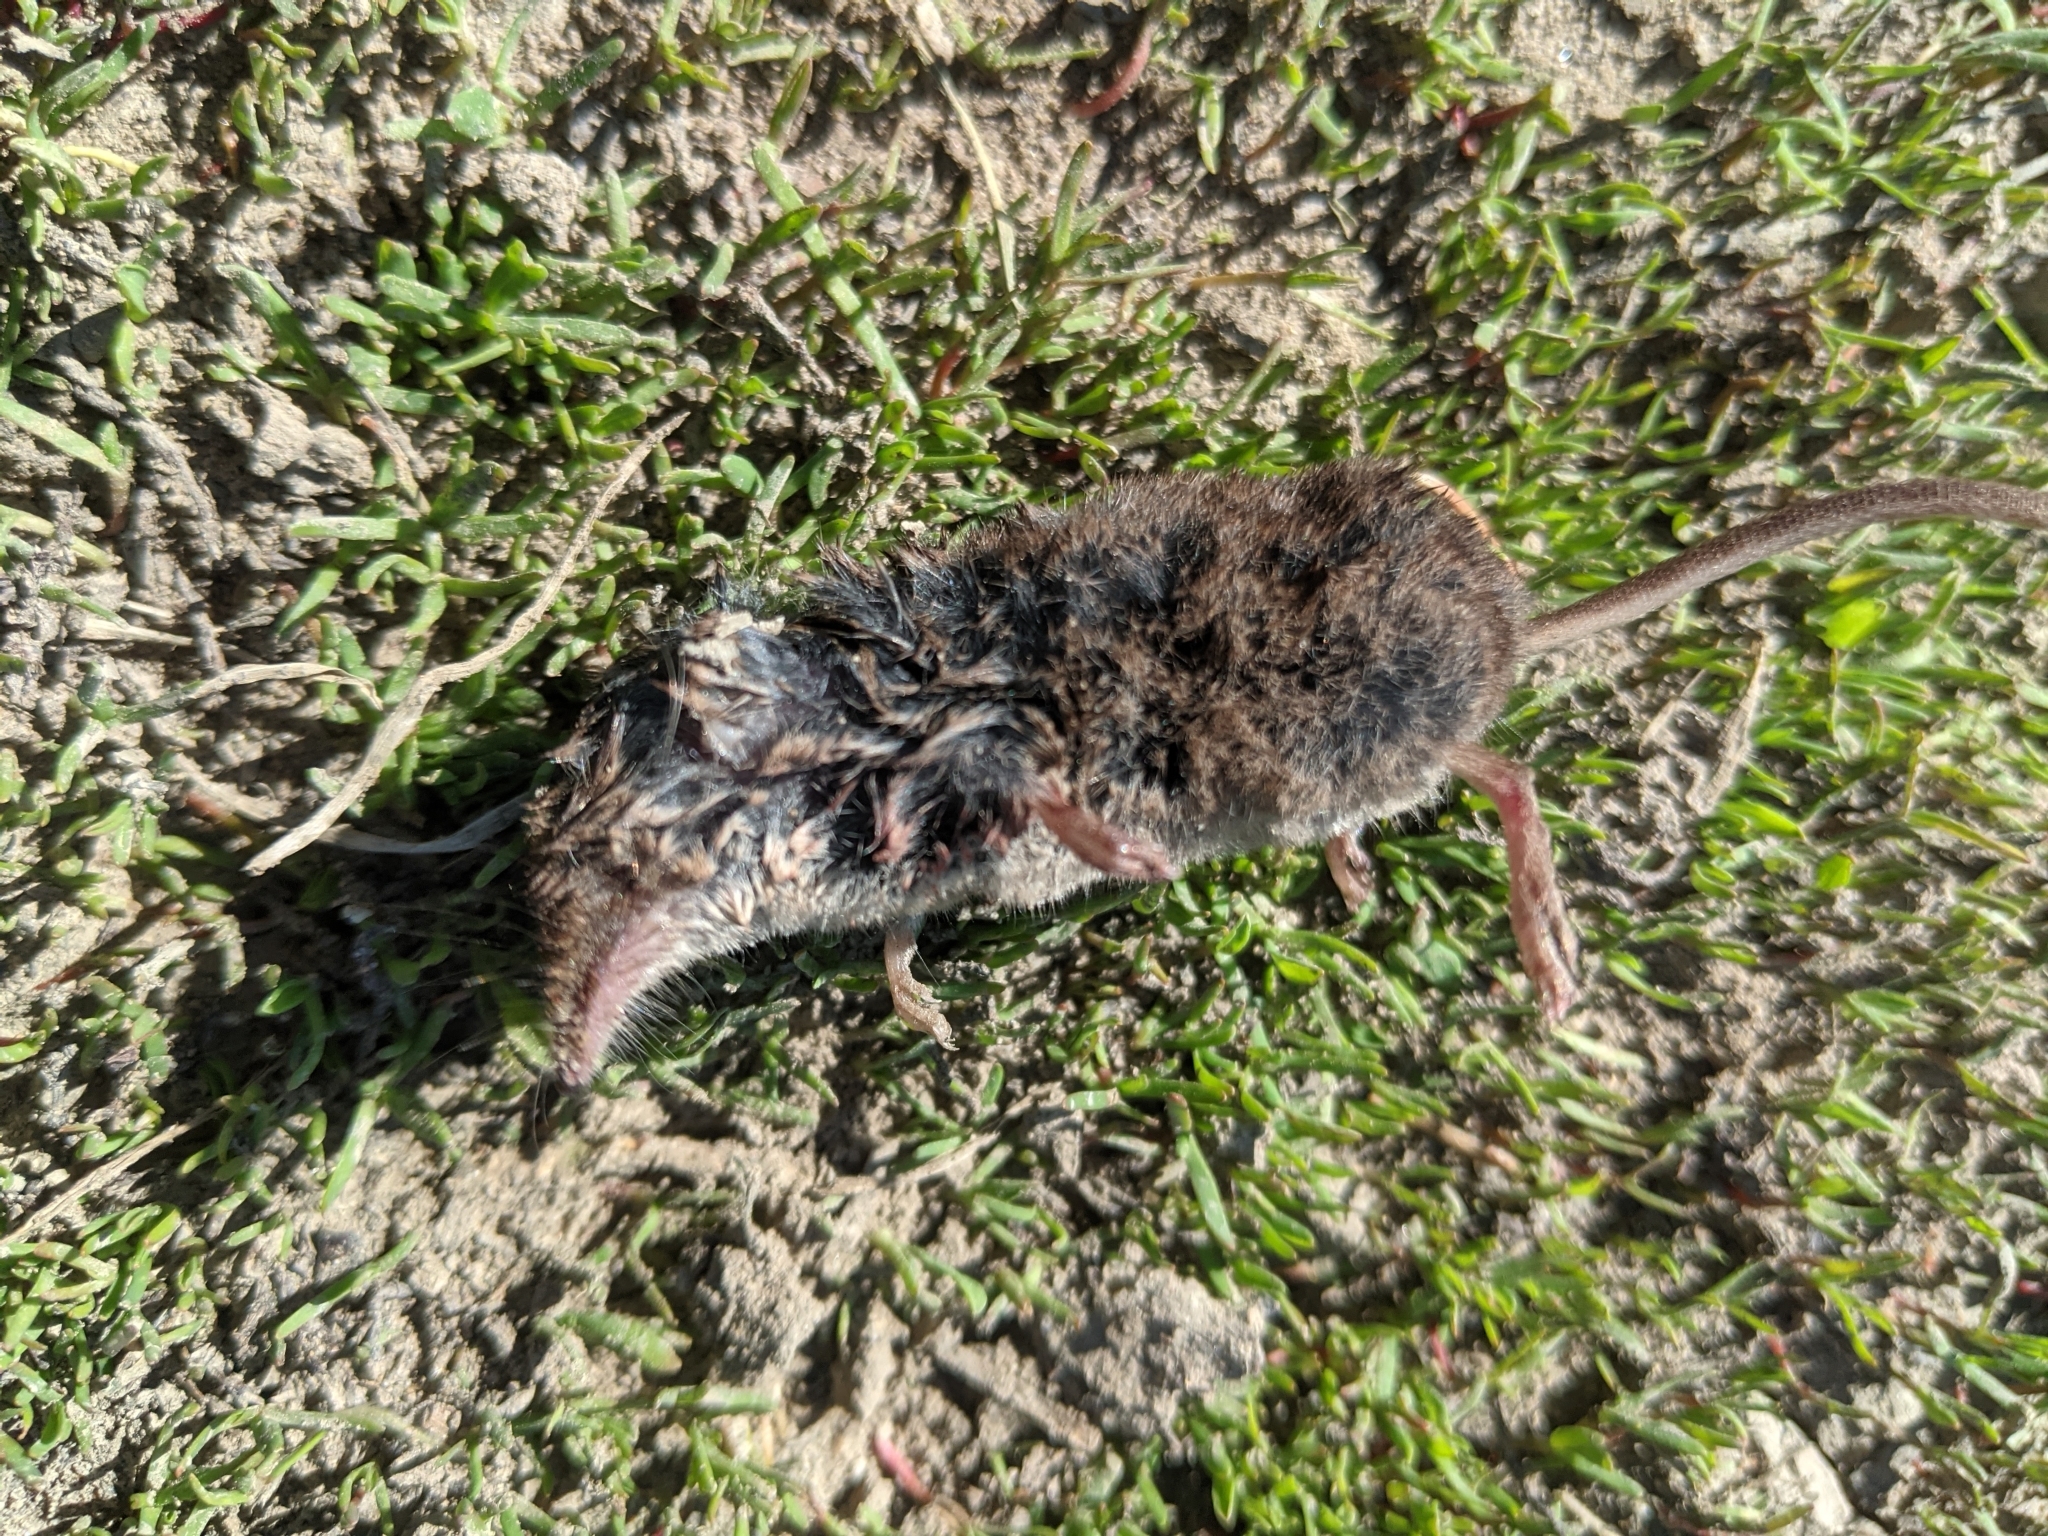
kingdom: Animalia
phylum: Chordata
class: Mammalia
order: Soricomorpha
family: Soricidae
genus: Sorex
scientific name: Sorex cinereus
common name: Cinereus shrew
